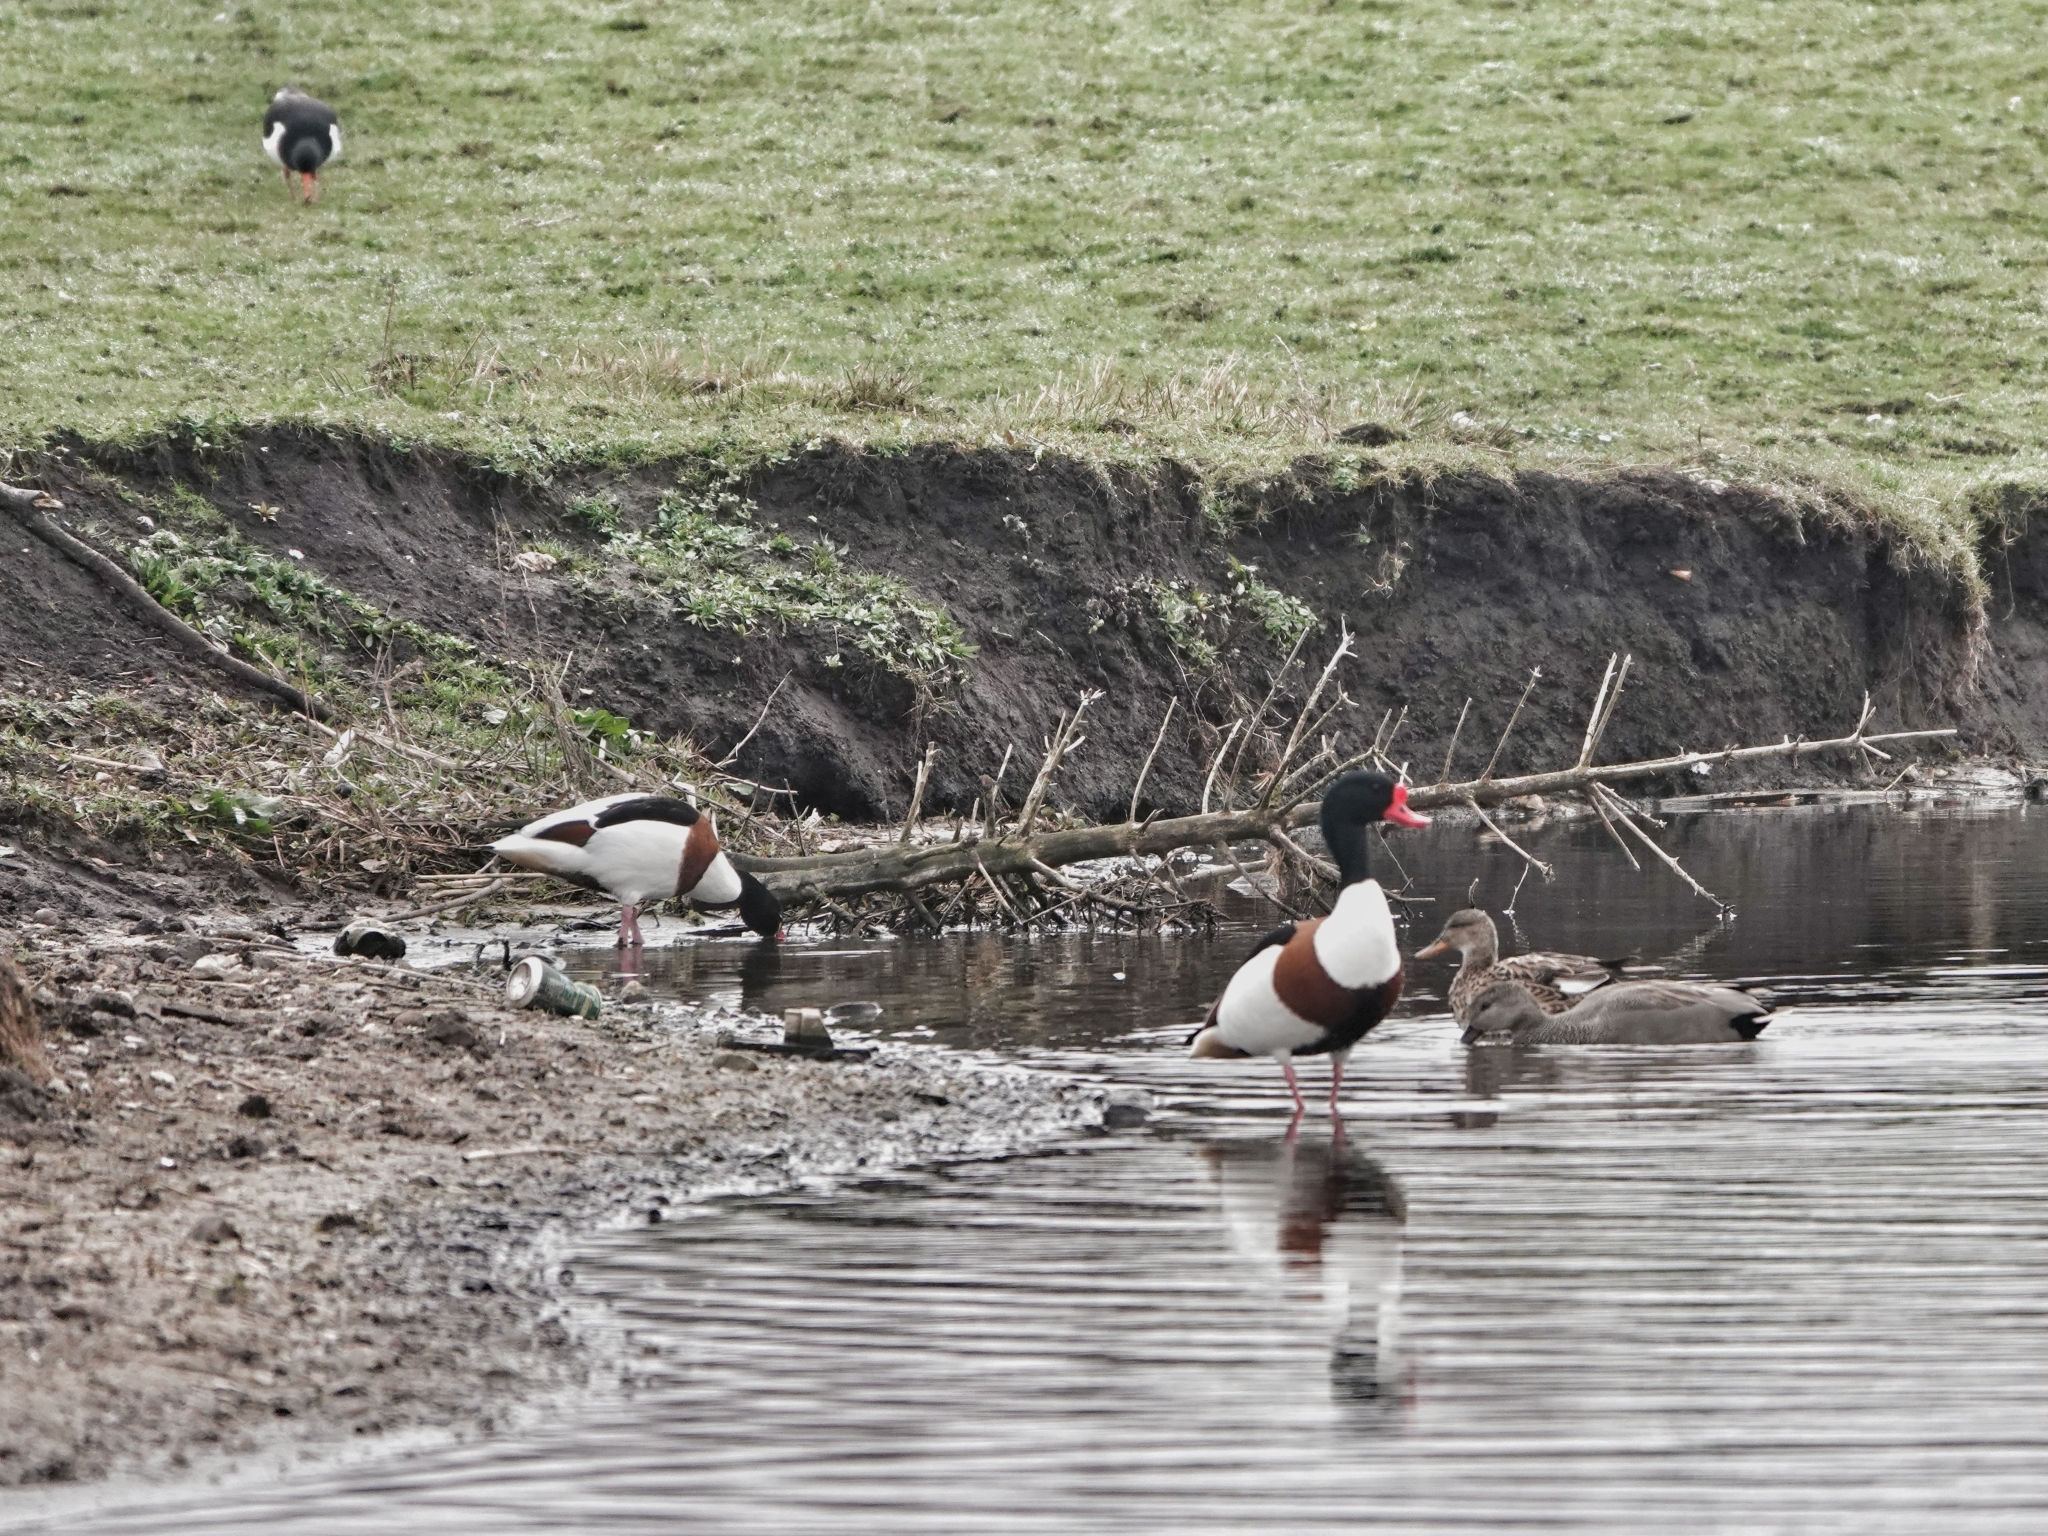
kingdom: Animalia
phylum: Chordata
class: Aves
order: Anseriformes
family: Anatidae
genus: Tadorna
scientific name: Tadorna tadorna
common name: Common shelduck
